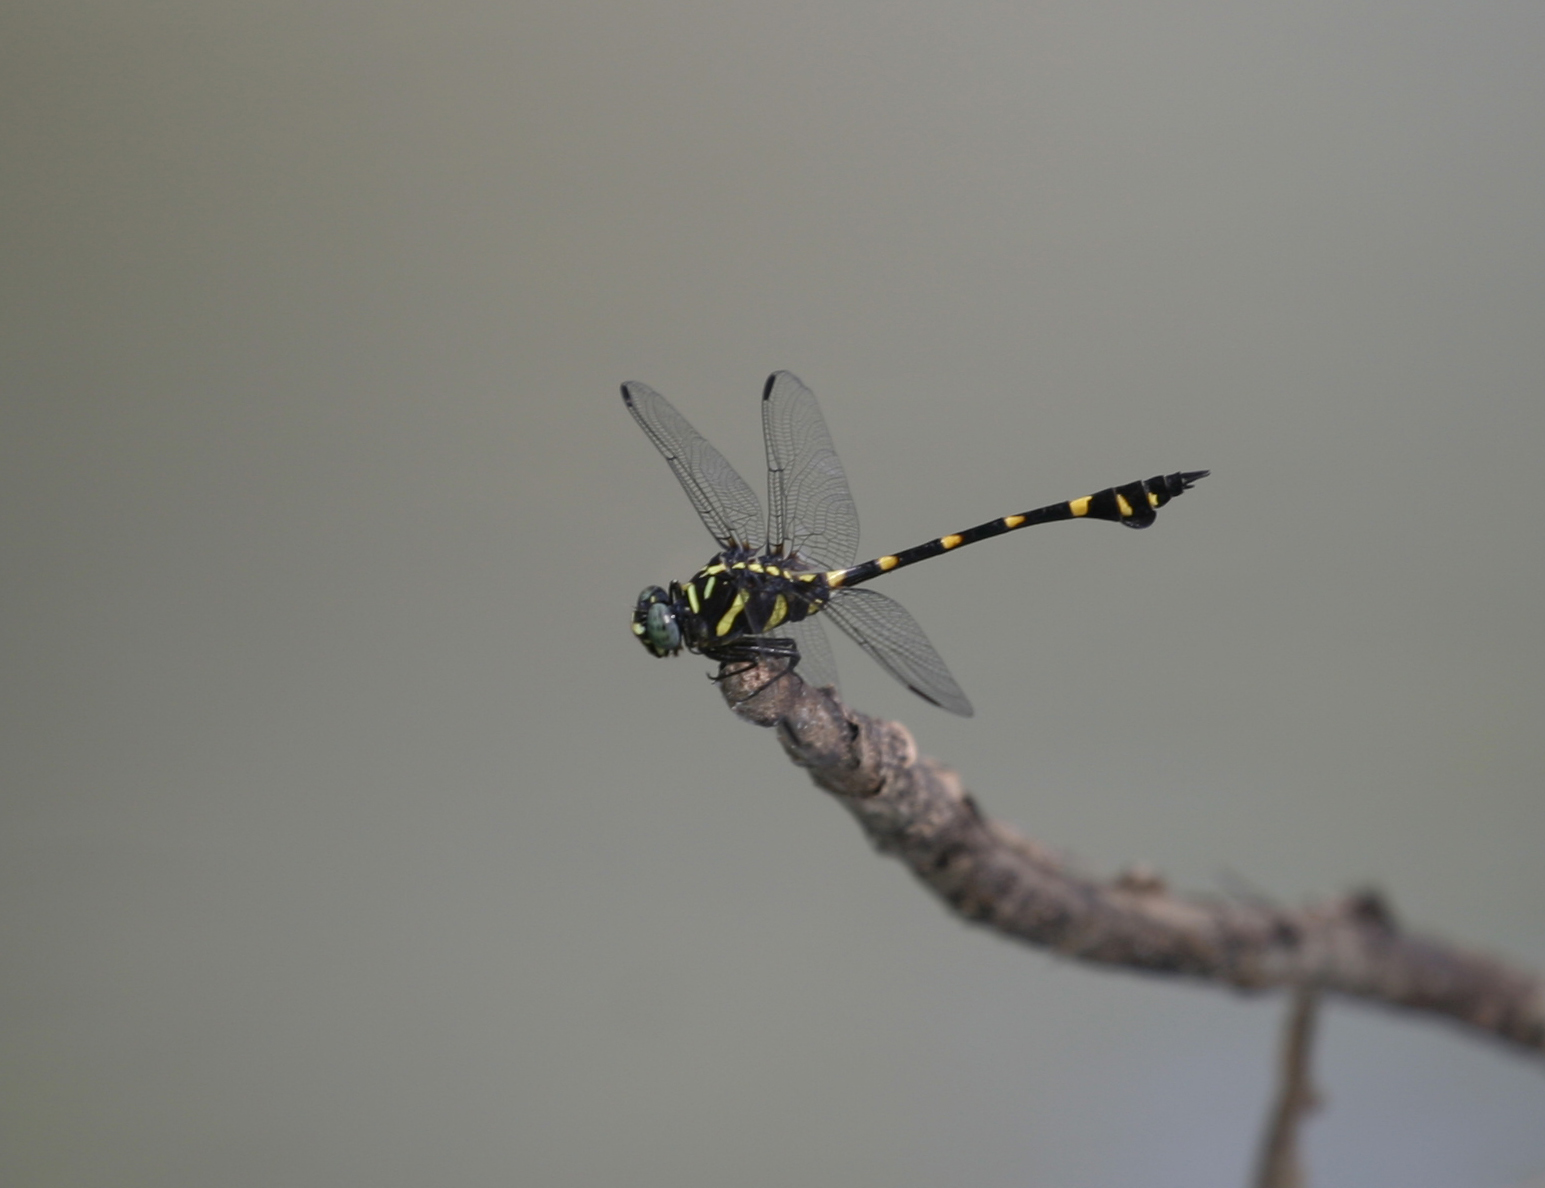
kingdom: Animalia
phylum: Arthropoda
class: Insecta
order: Odonata
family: Gomphidae
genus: Ictinogomphus
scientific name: Ictinogomphus decoratus
